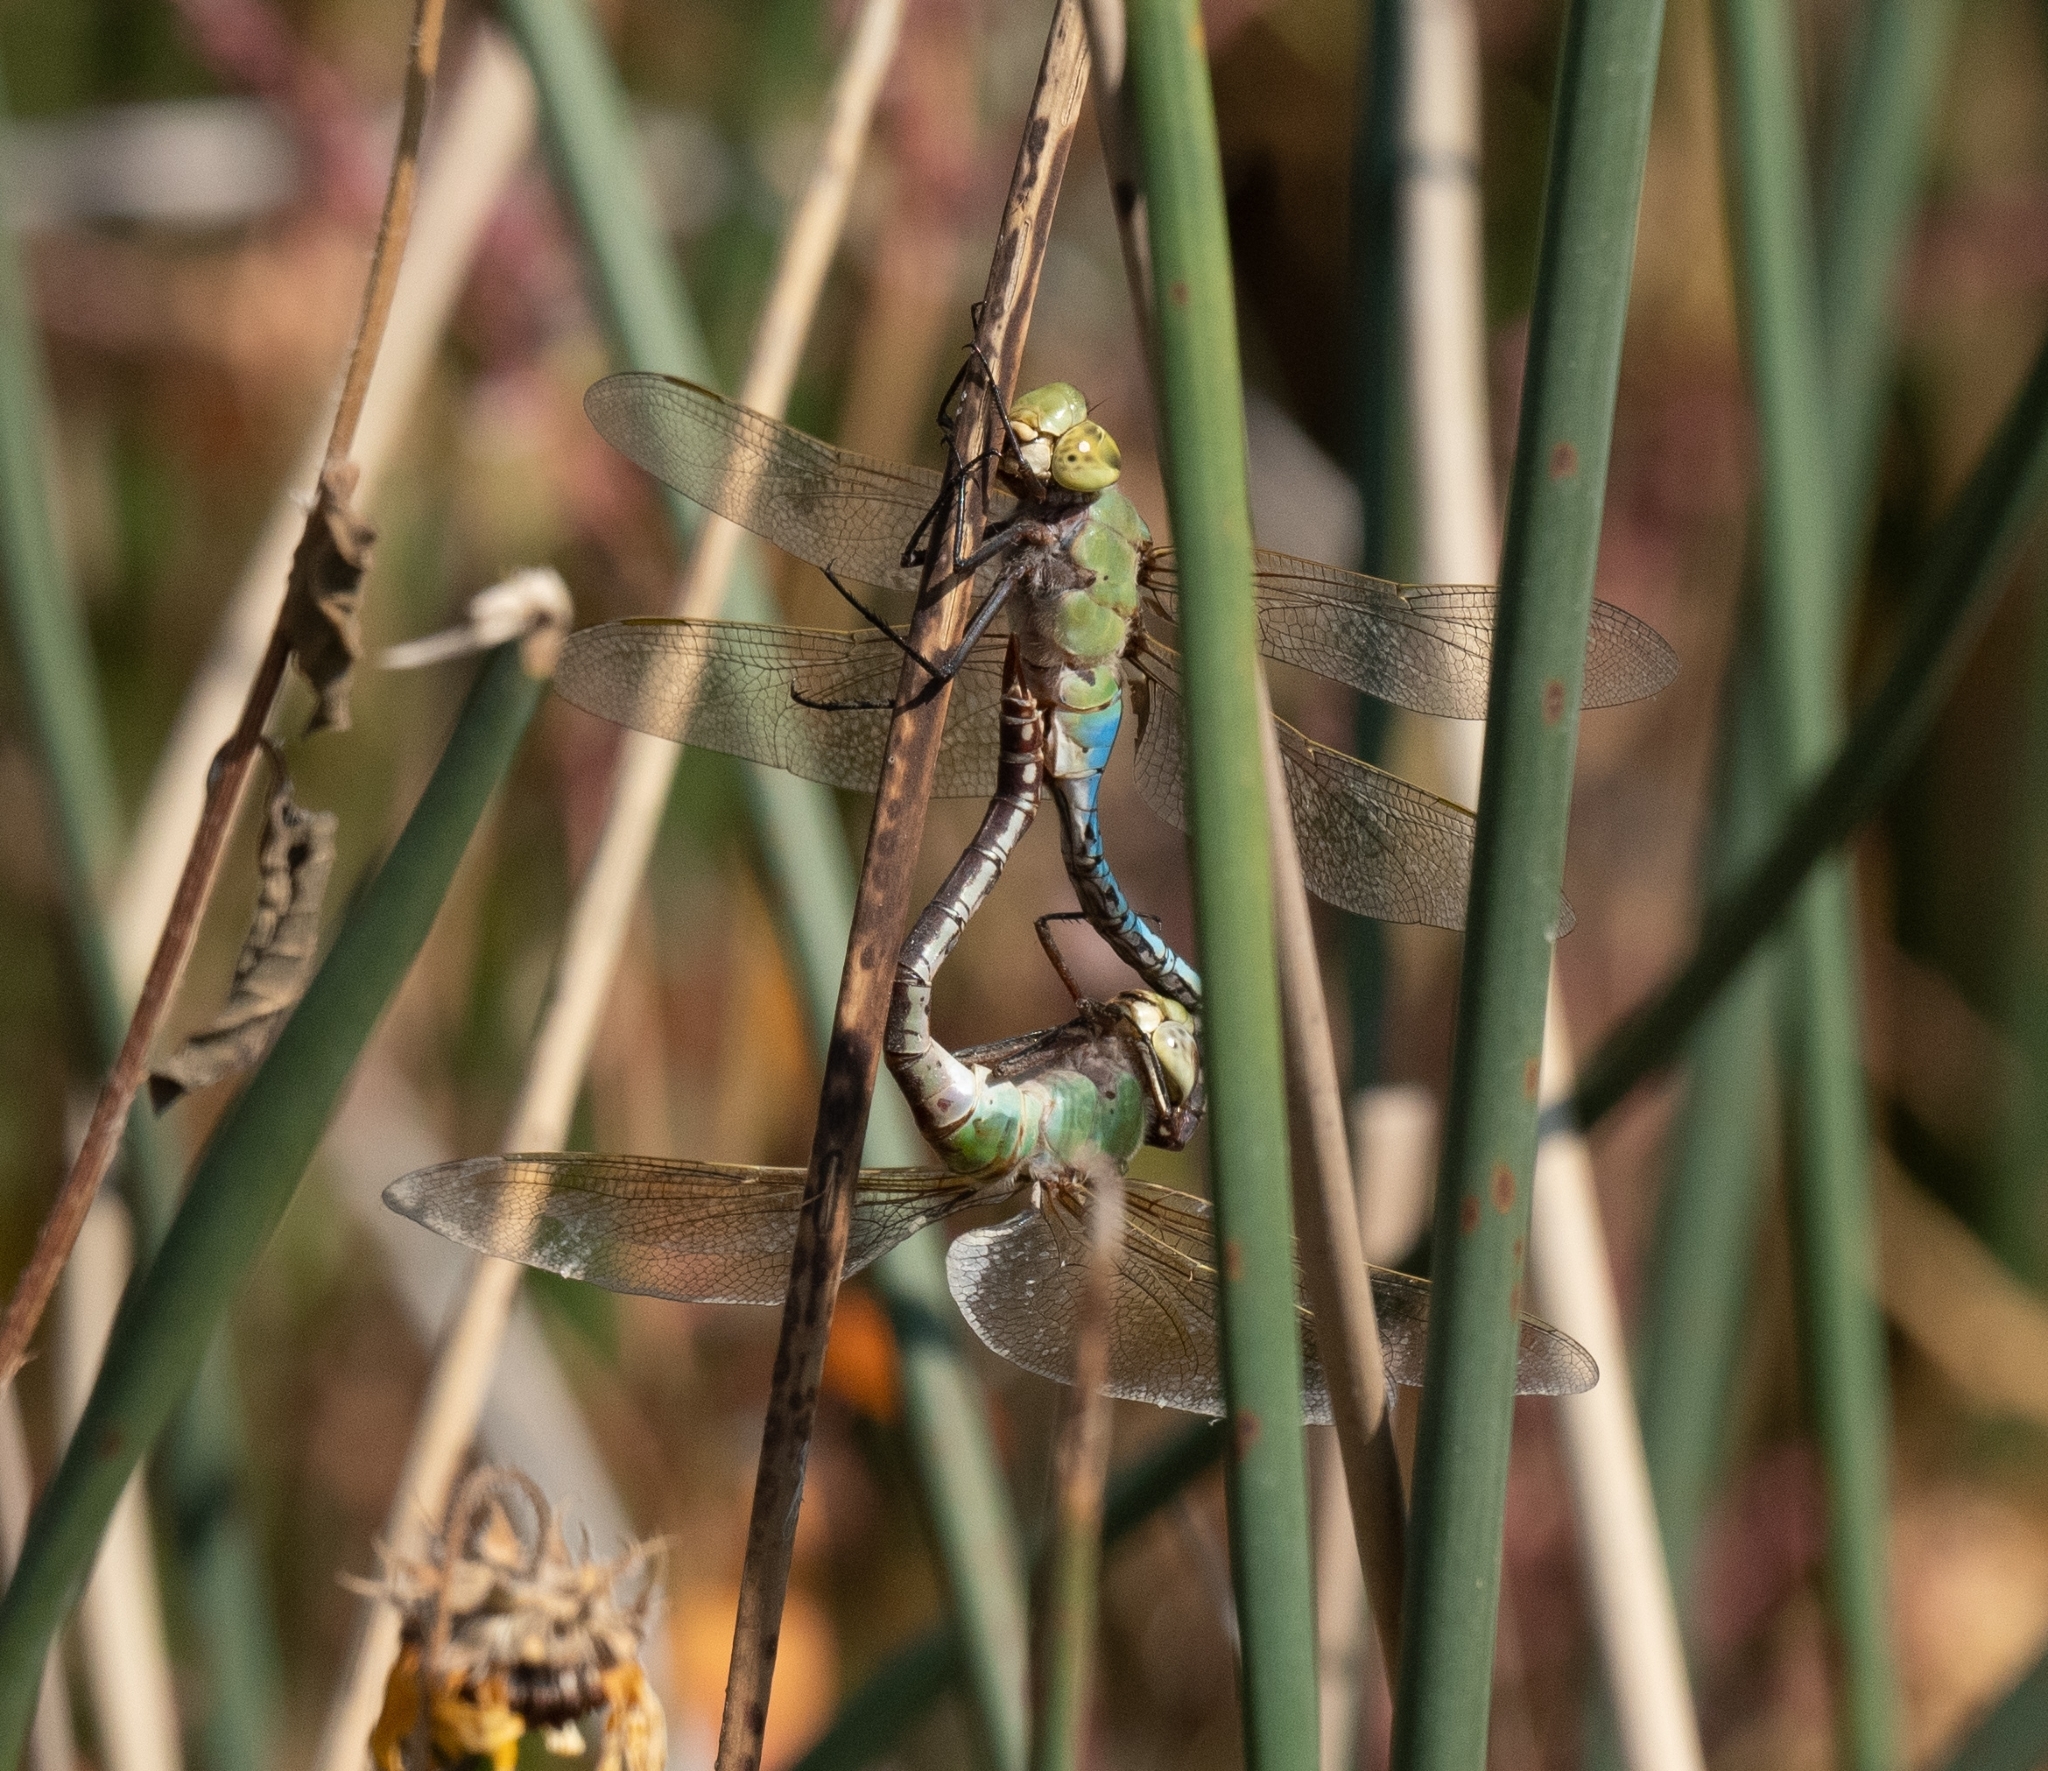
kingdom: Animalia
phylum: Arthropoda
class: Insecta
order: Odonata
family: Aeshnidae
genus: Anax
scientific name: Anax junius
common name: Common green darner
